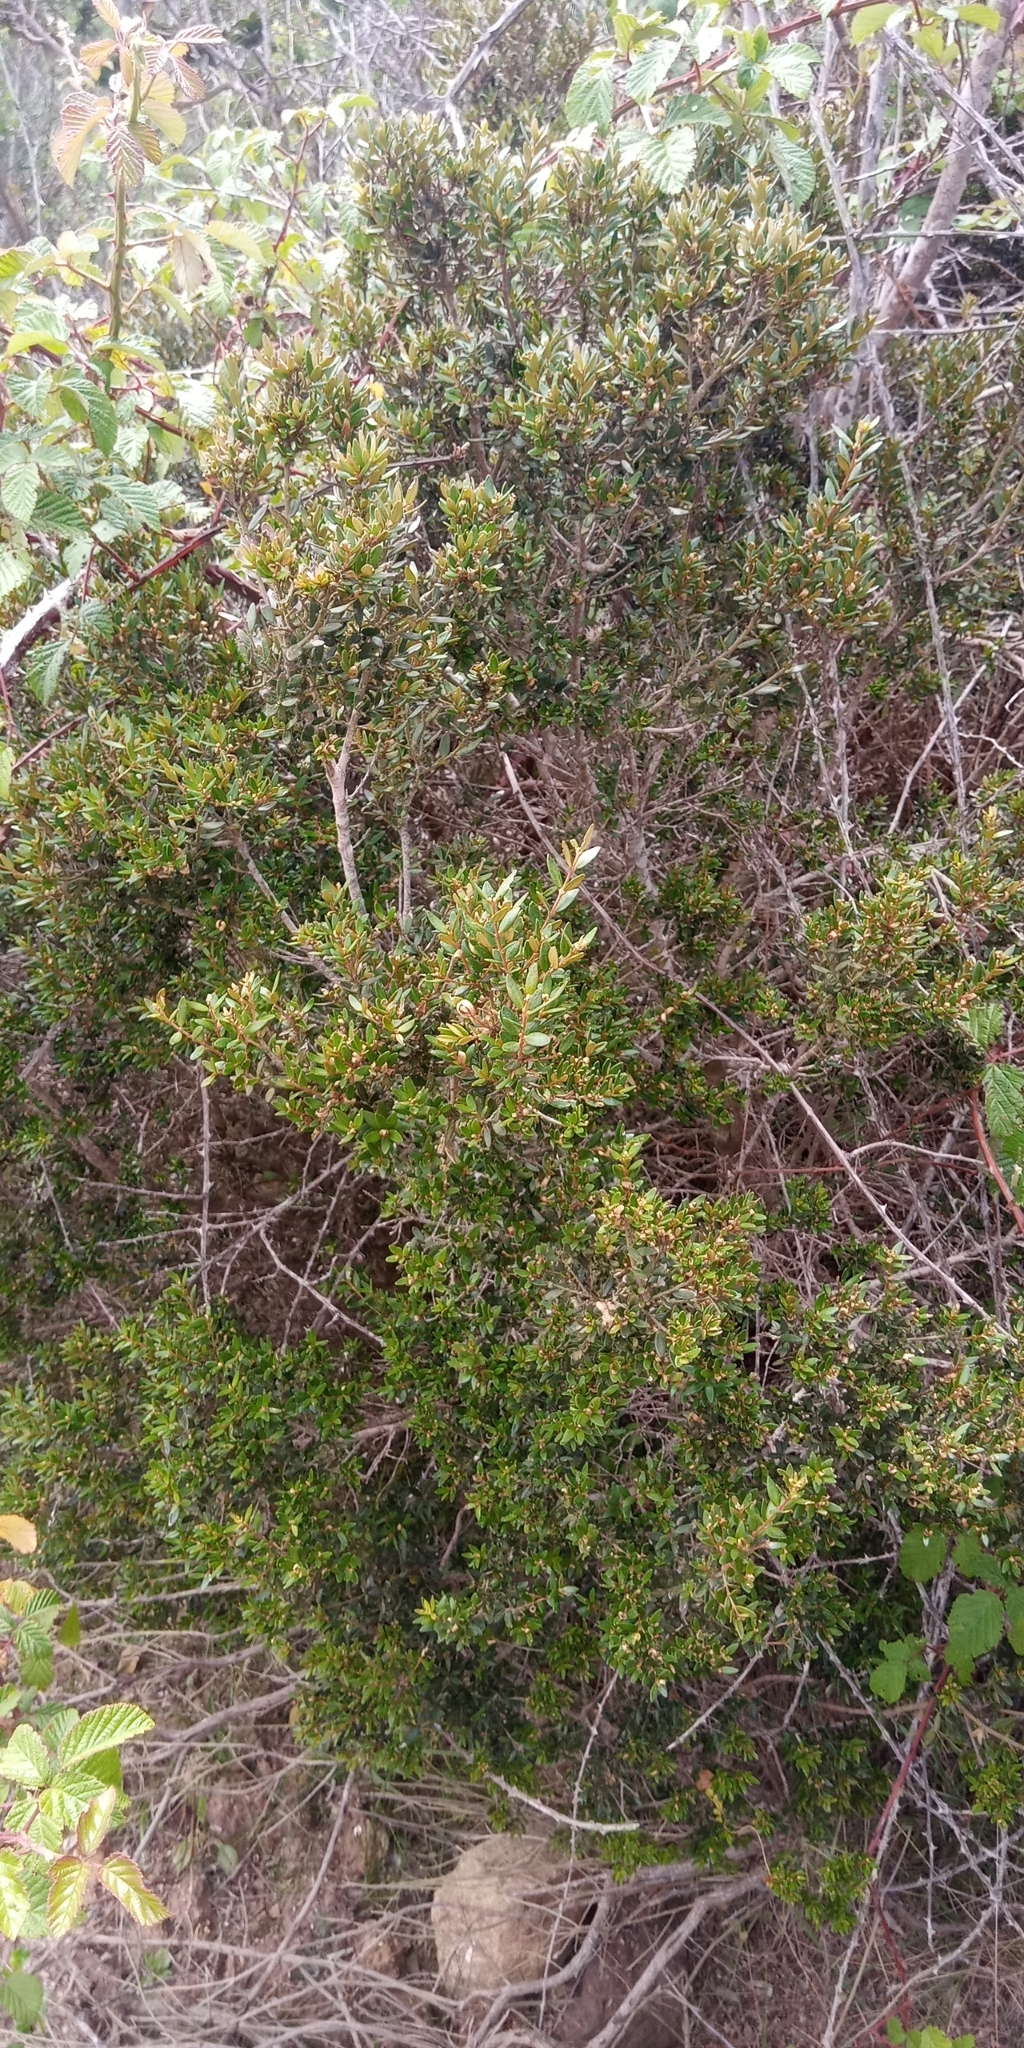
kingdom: Plantae
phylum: Tracheophyta
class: Magnoliopsida
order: Myrtales
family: Myrtaceae
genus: Myrceugenia
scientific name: Myrceugenia rufa
